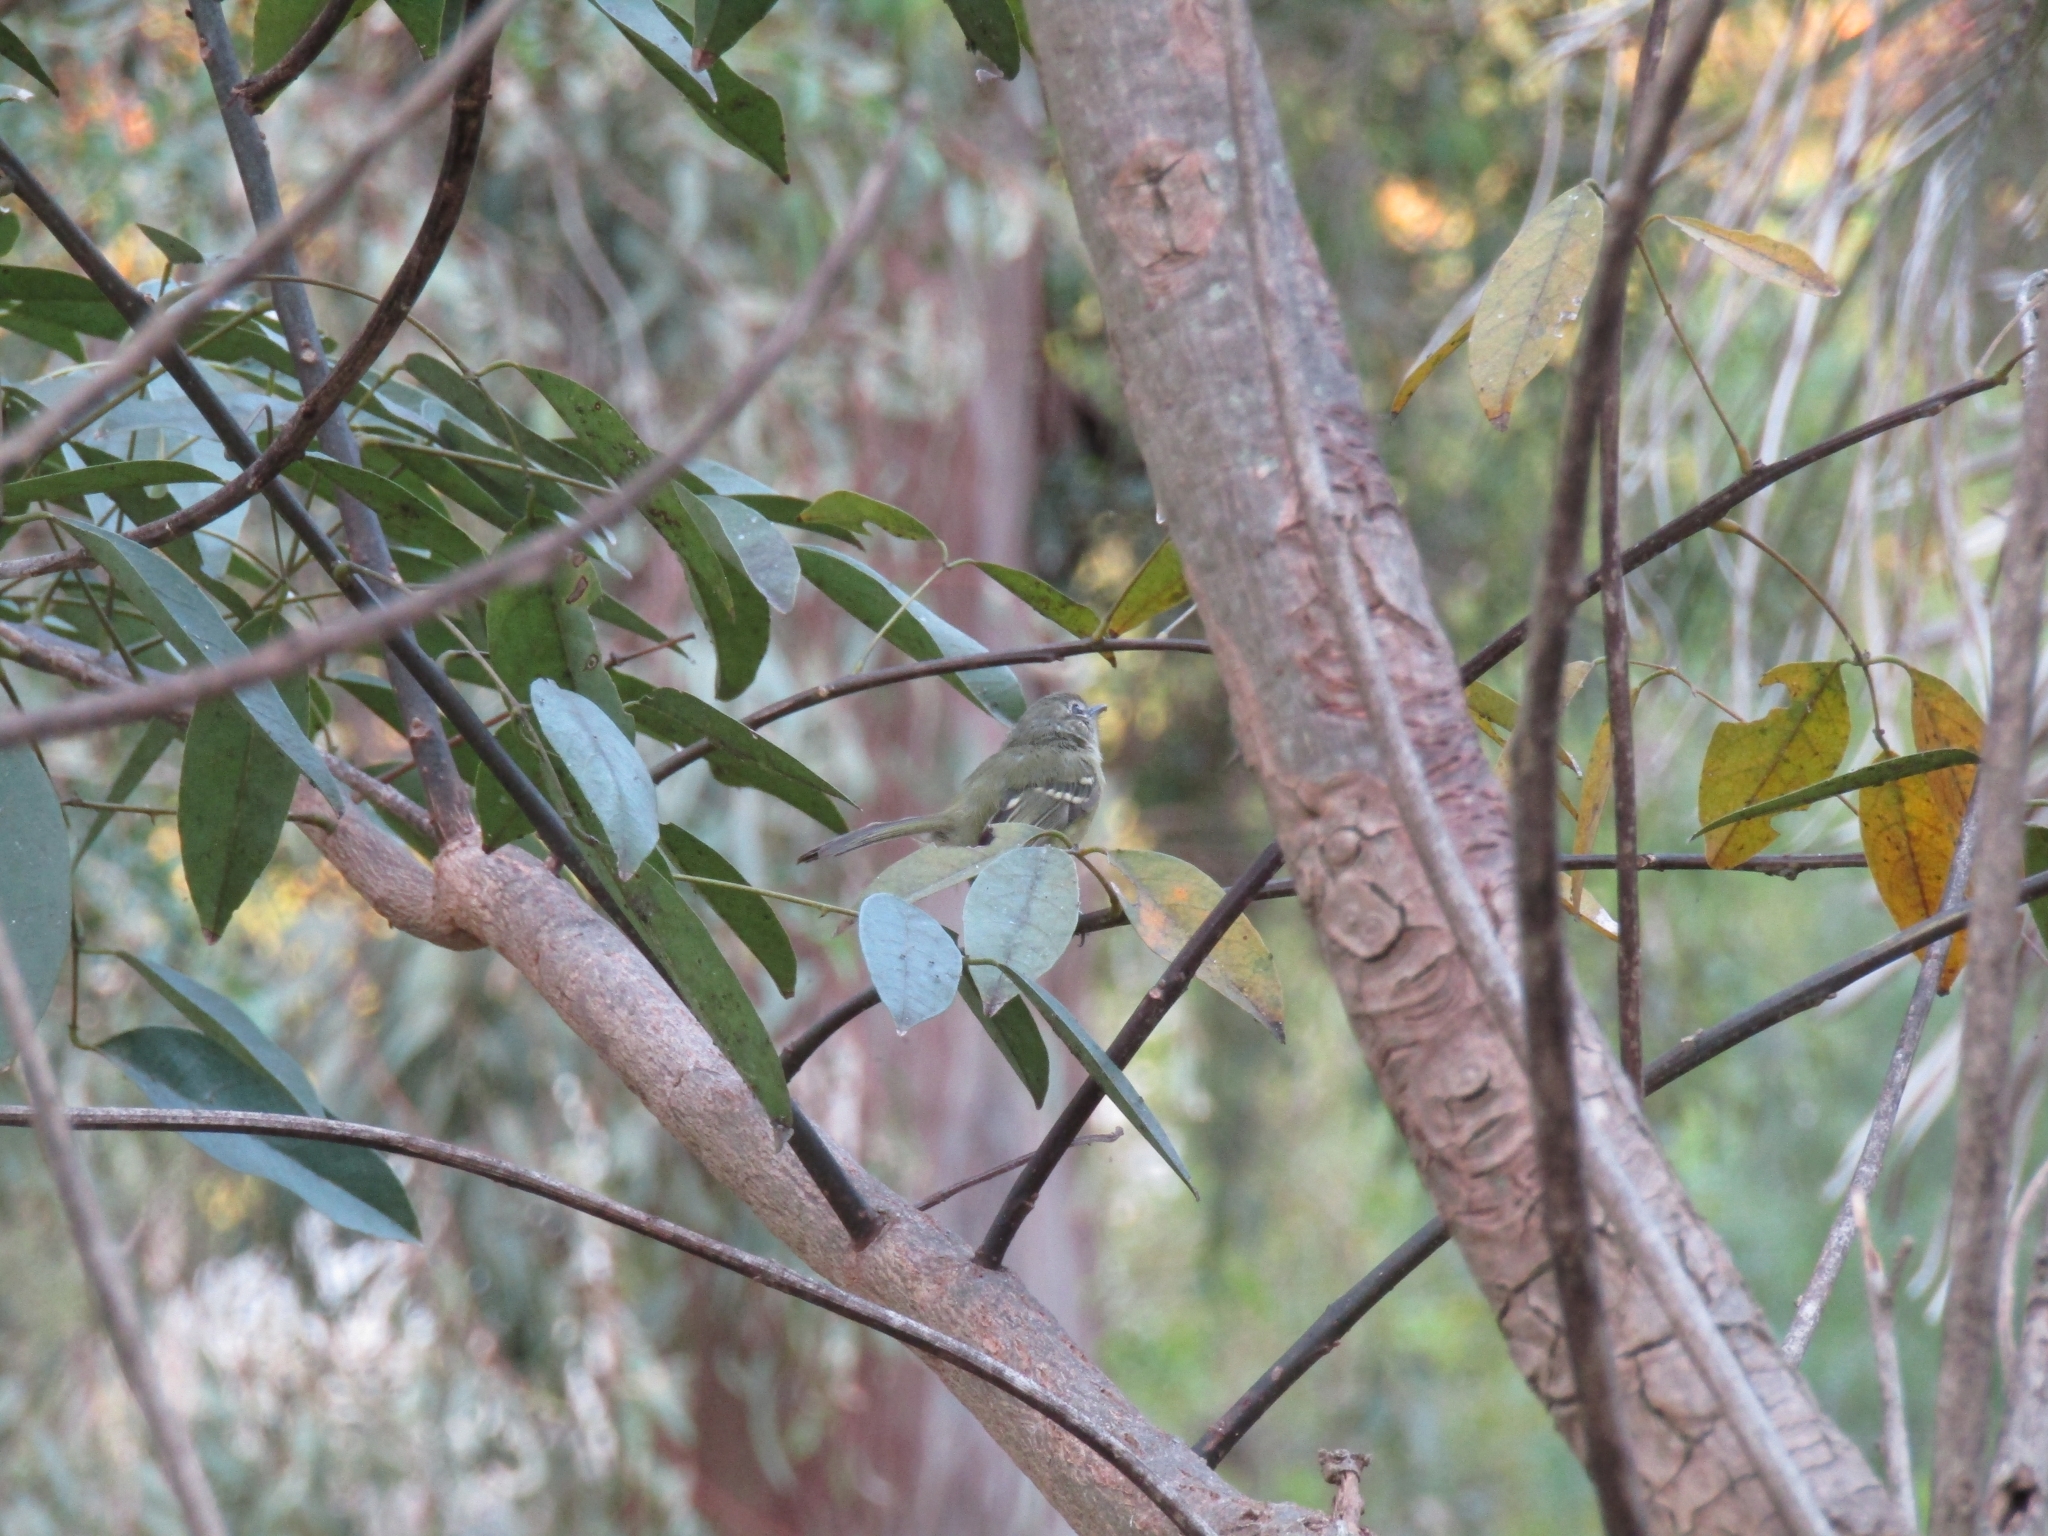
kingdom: Animalia
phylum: Chordata
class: Aves
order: Passeriformes
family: Tyrannidae
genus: Phylloscartes
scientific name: Phylloscartes ventralis
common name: Mottle-cheeked tyrannulet
